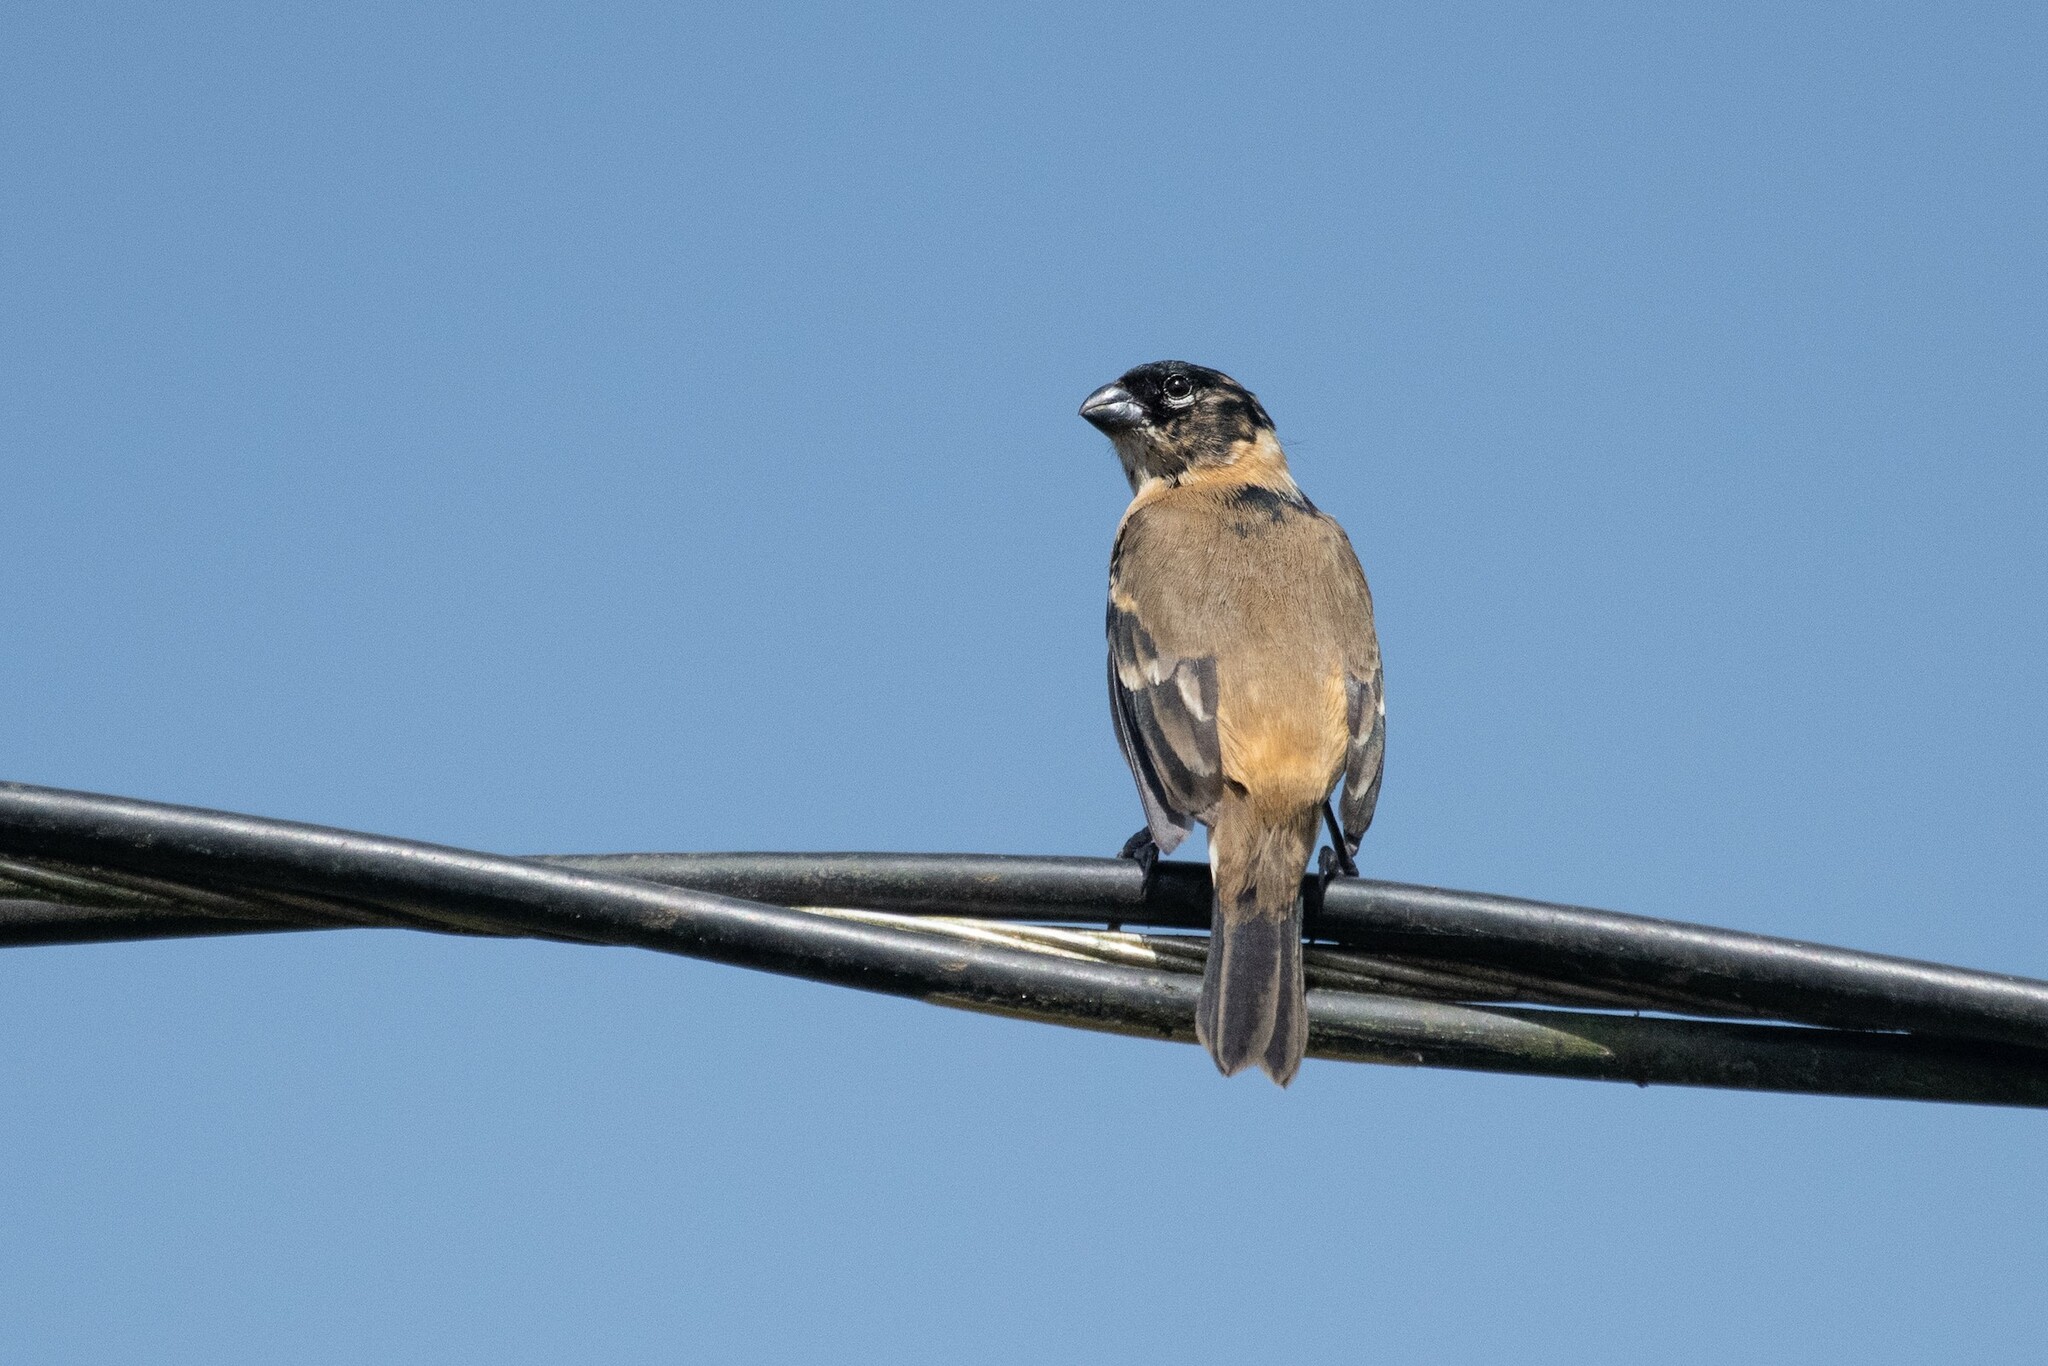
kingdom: Animalia
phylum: Chordata
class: Aves
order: Passeriformes
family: Thraupidae
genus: Sporophila
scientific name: Sporophila morelleti
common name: Morelet's seedeater
